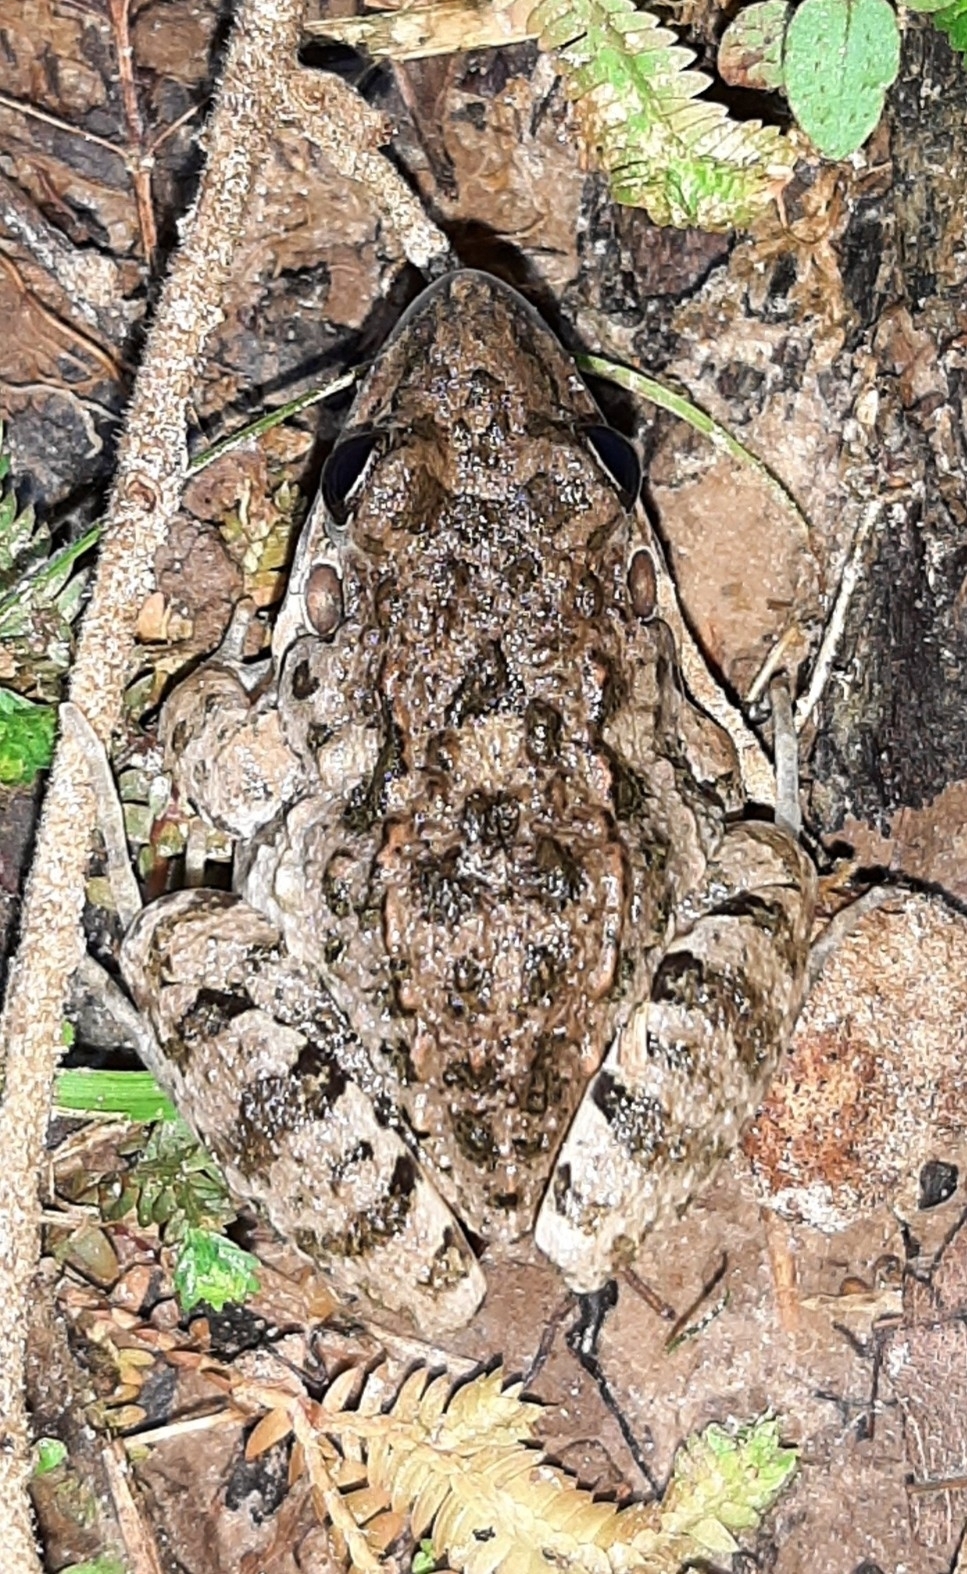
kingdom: Animalia
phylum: Chordata
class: Amphibia
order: Anura
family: Leptodactylidae
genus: Leptodactylus
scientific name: Leptodactylus fragilis
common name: Mexican white-lipped frog
